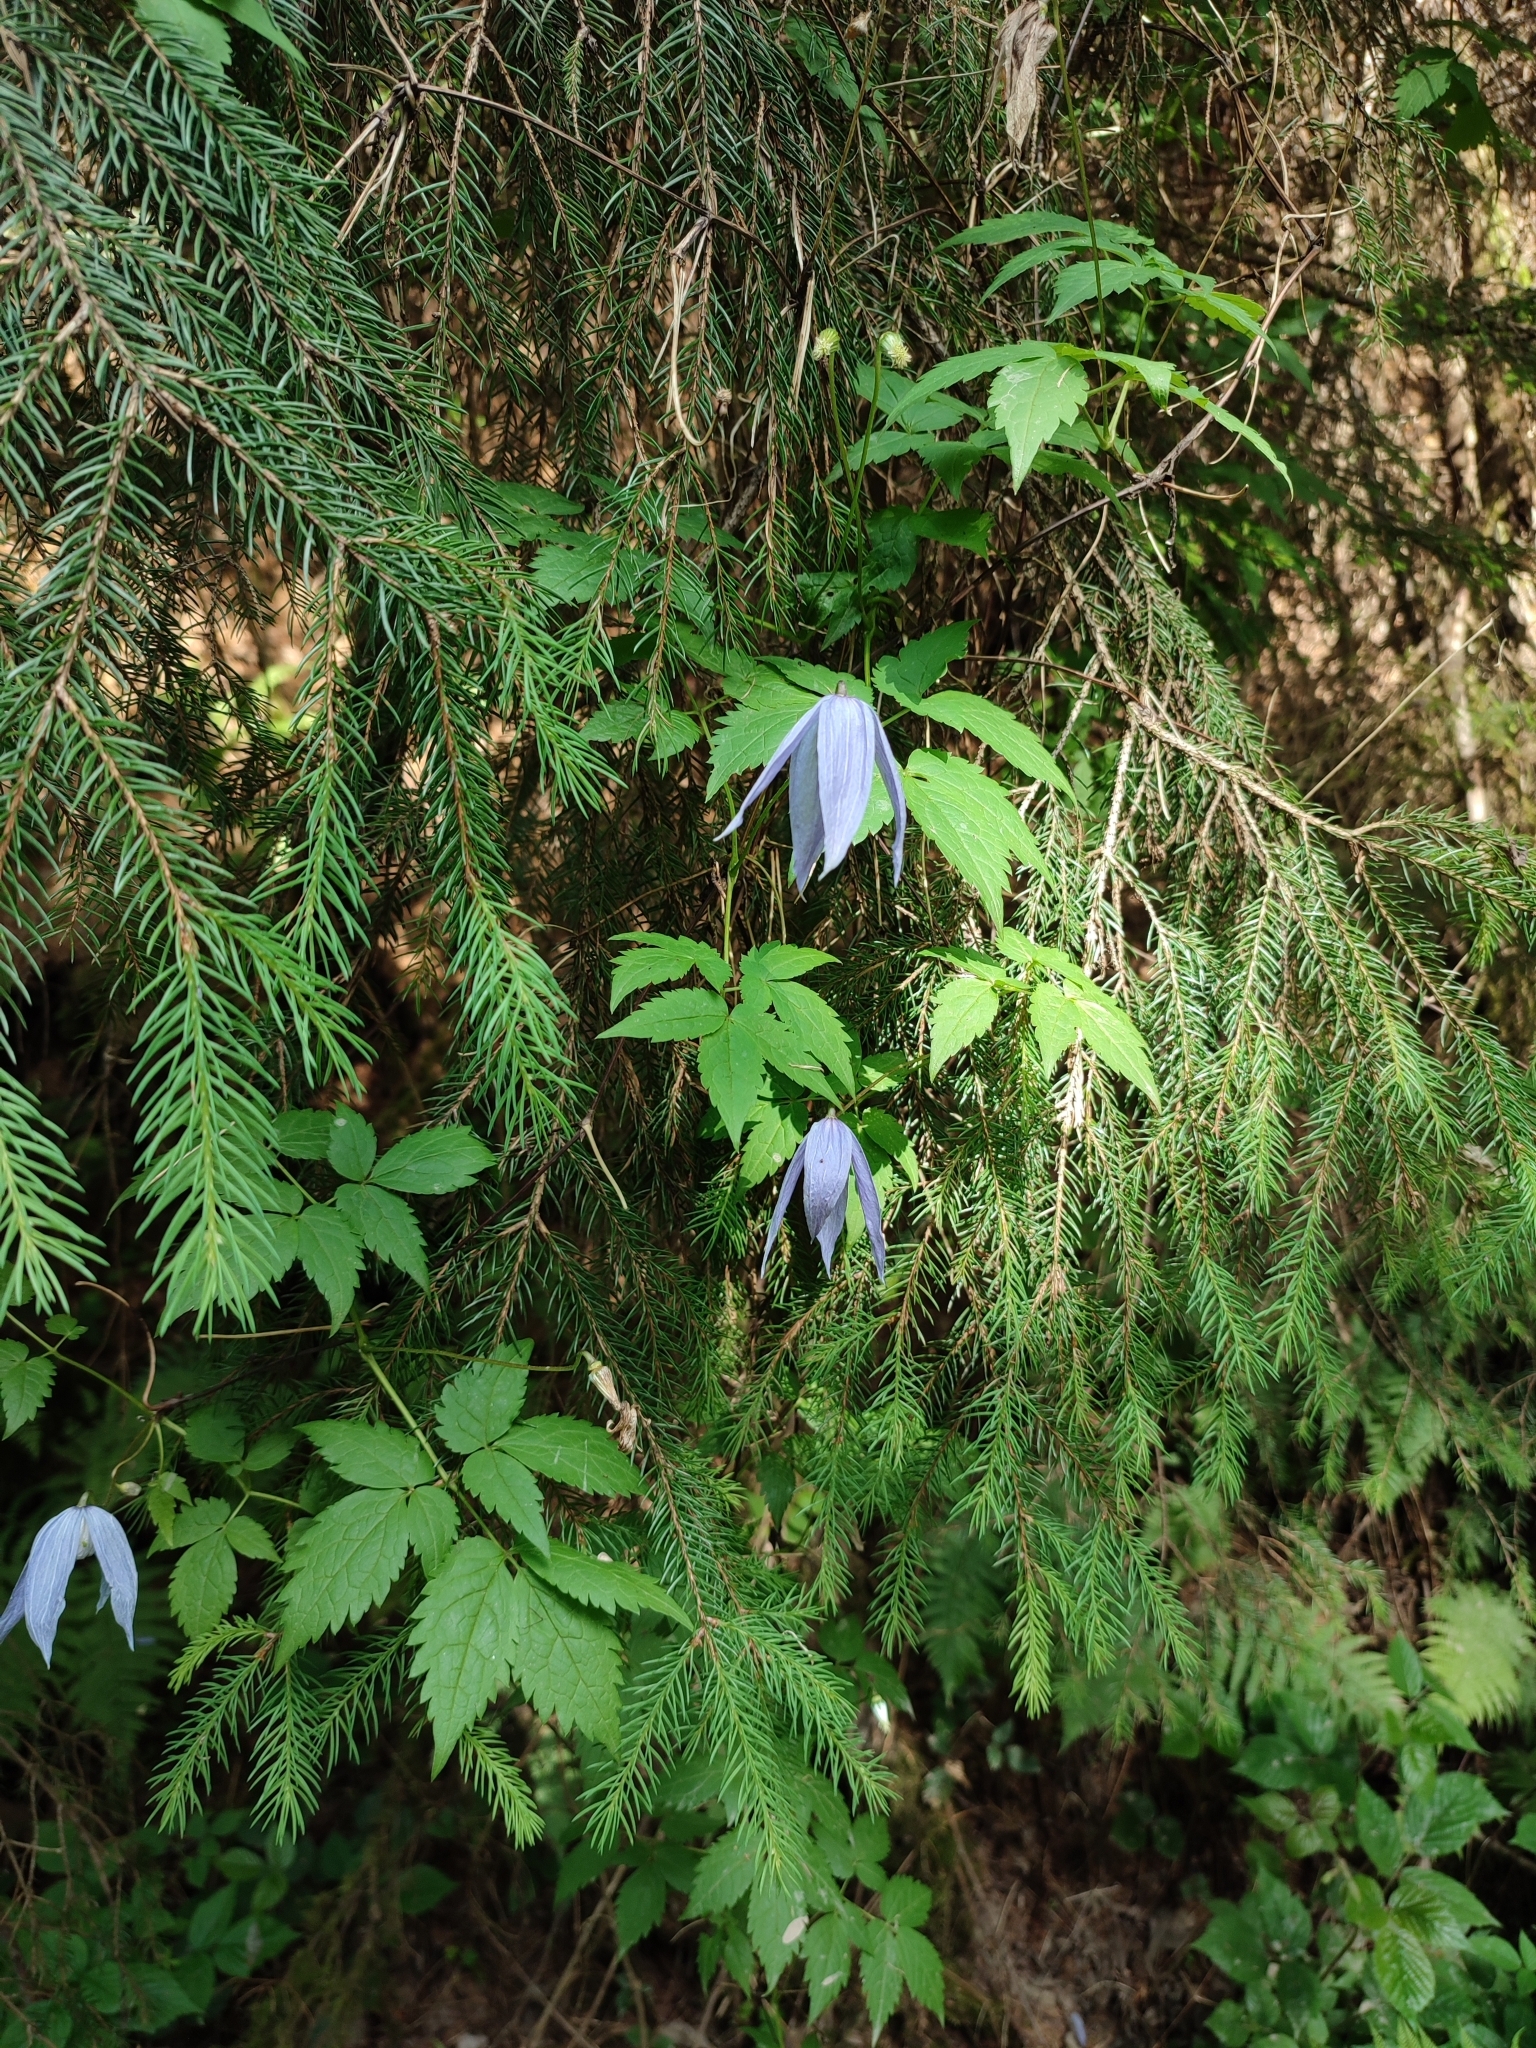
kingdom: Plantae
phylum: Tracheophyta
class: Magnoliopsida
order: Ranunculales
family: Ranunculaceae
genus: Clematis
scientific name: Clematis alpina
